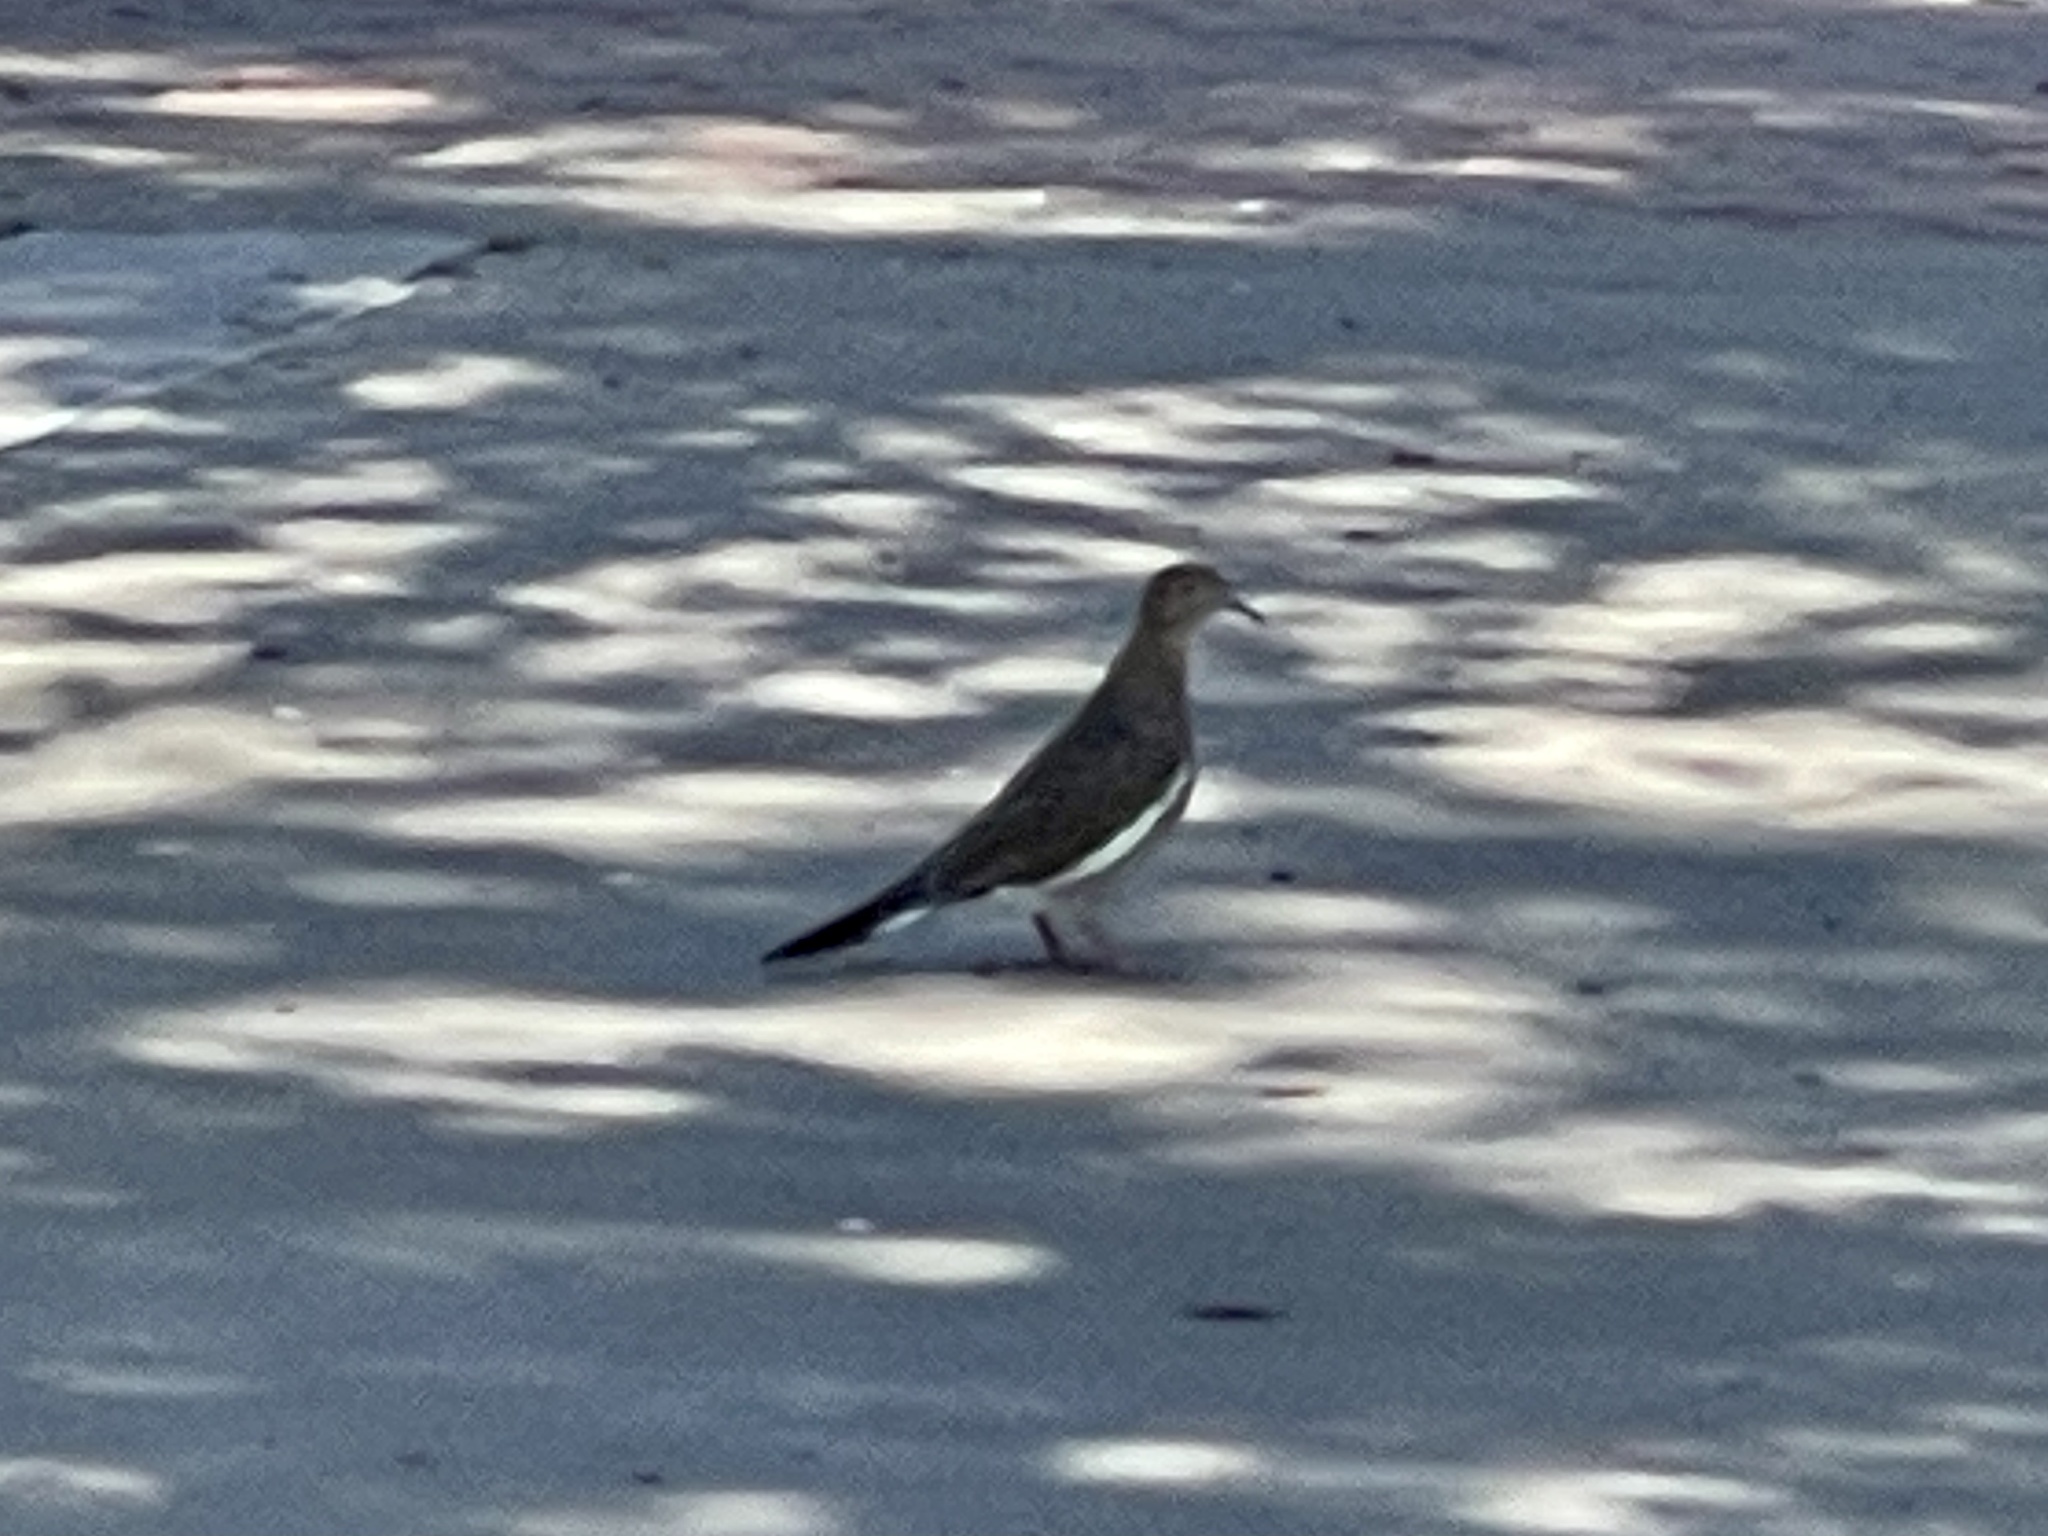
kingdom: Animalia
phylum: Chordata
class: Aves
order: Columbiformes
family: Columbidae
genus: Zenaida
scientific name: Zenaida asiatica
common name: White-winged dove
